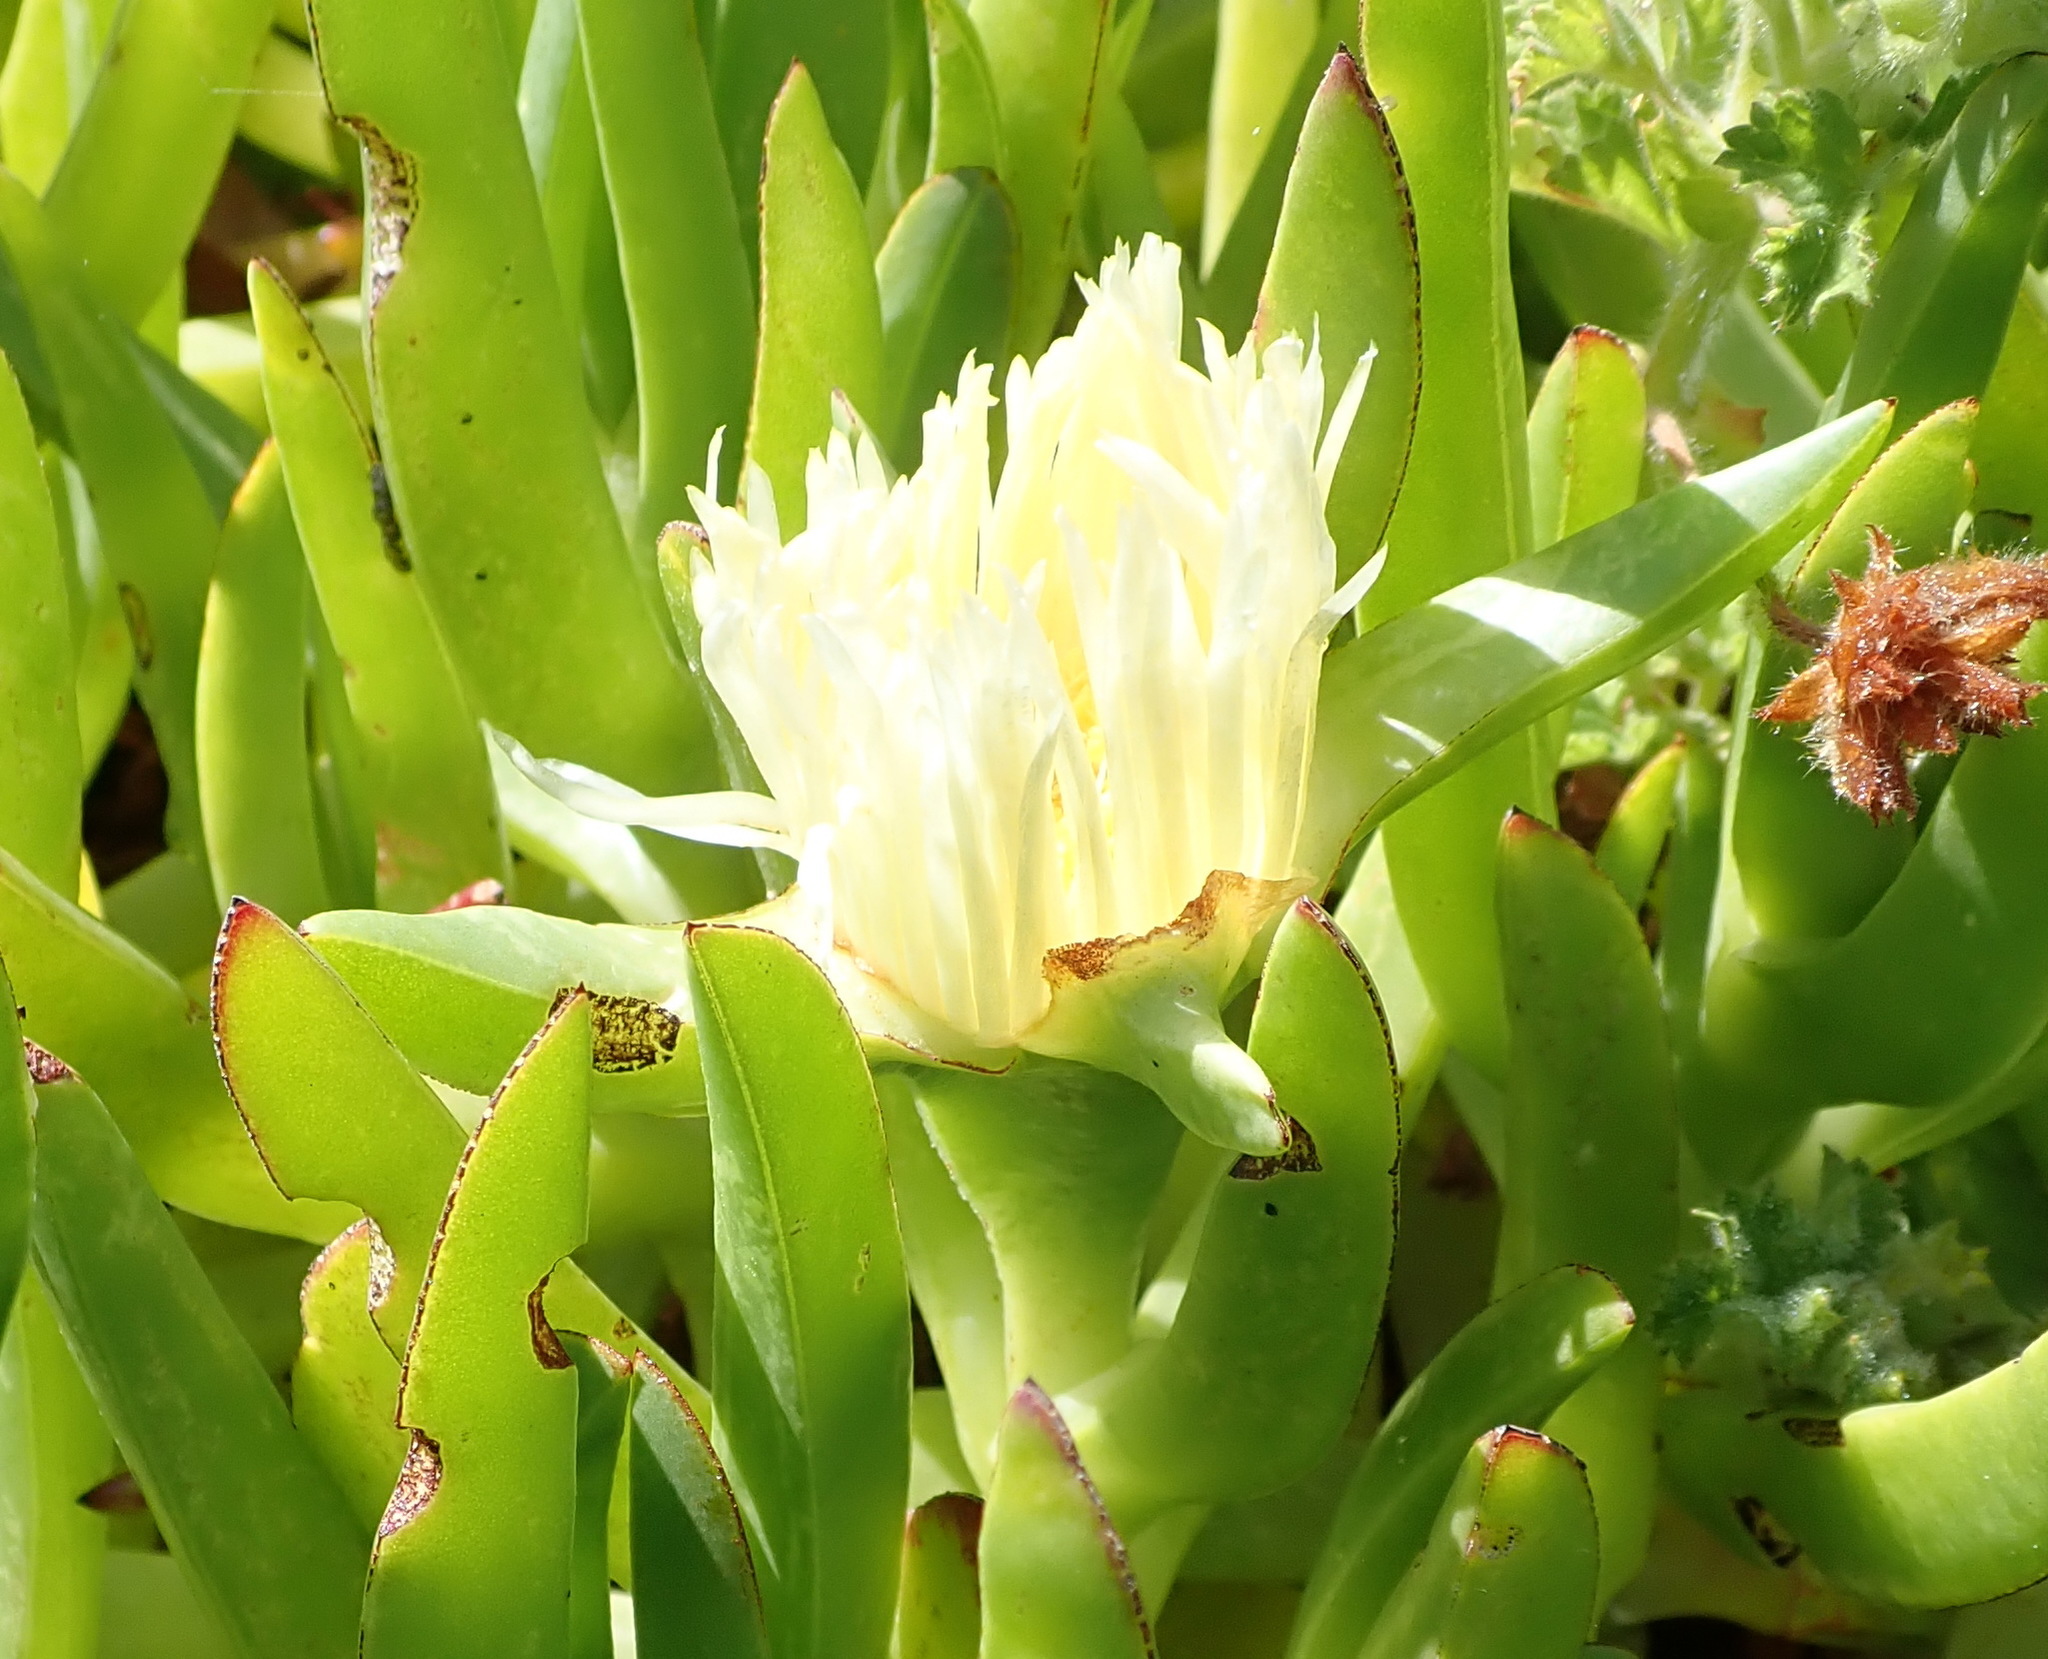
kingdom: Plantae
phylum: Tracheophyta
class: Magnoliopsida
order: Caryophyllales
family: Aizoaceae
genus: Carpobrotus
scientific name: Carpobrotus edulis
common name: Hottentot-fig
